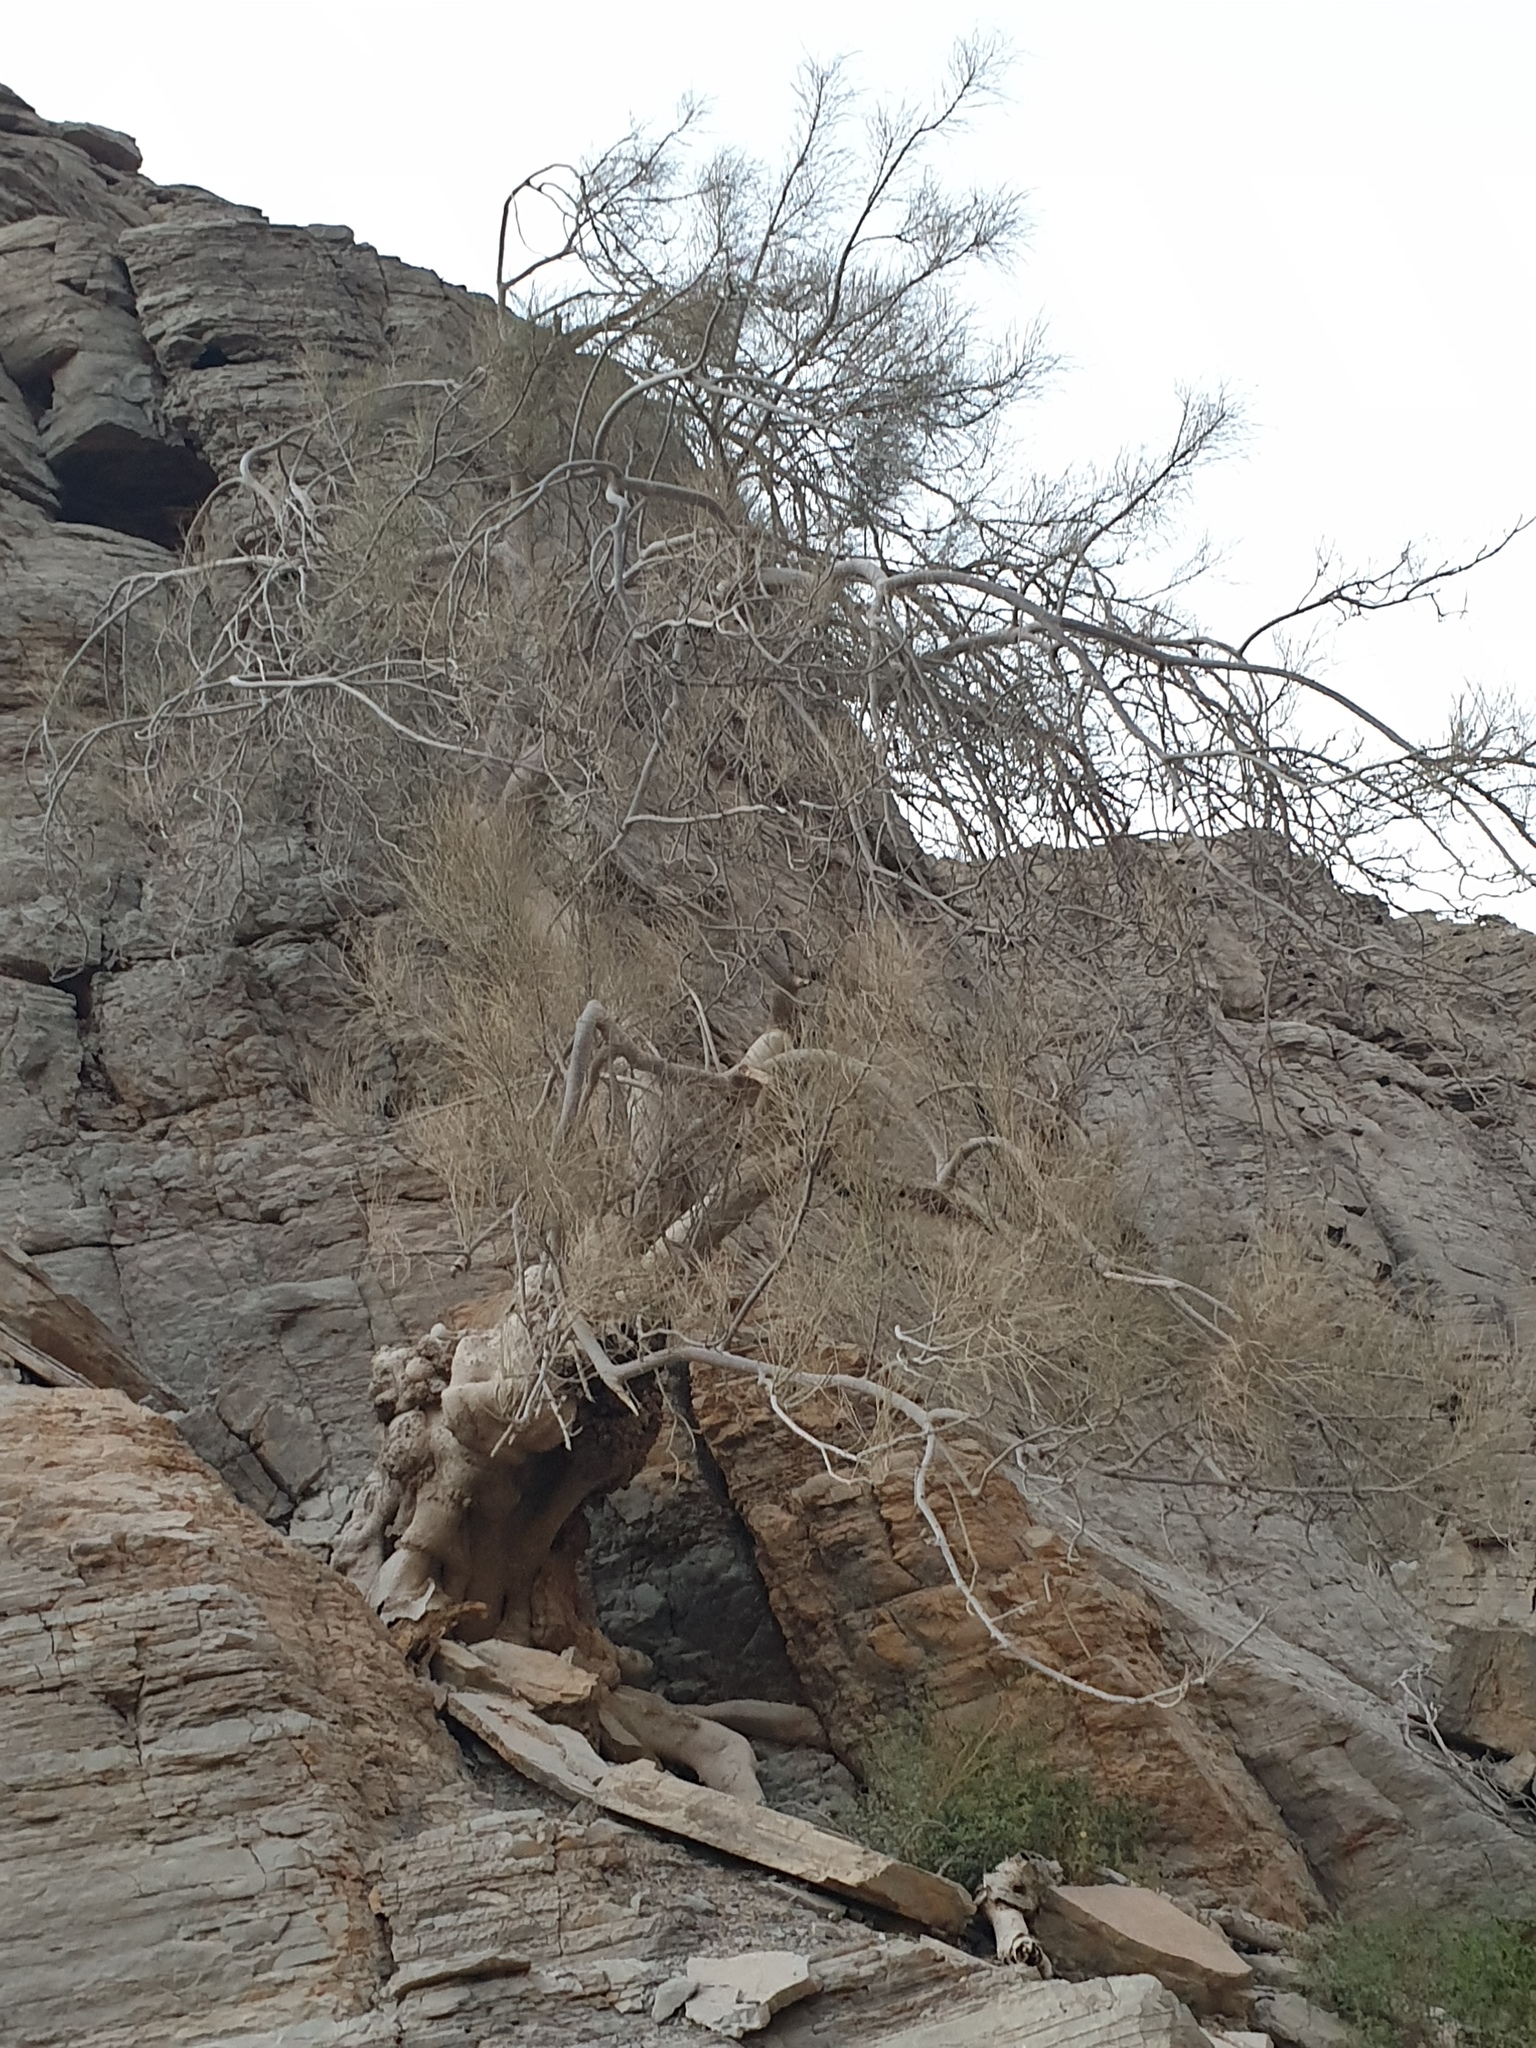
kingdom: Plantae
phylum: Tracheophyta
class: Magnoliopsida
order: Brassicales
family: Moringaceae
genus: Moringa
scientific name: Moringa peregrina
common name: Wild drumstick tree
